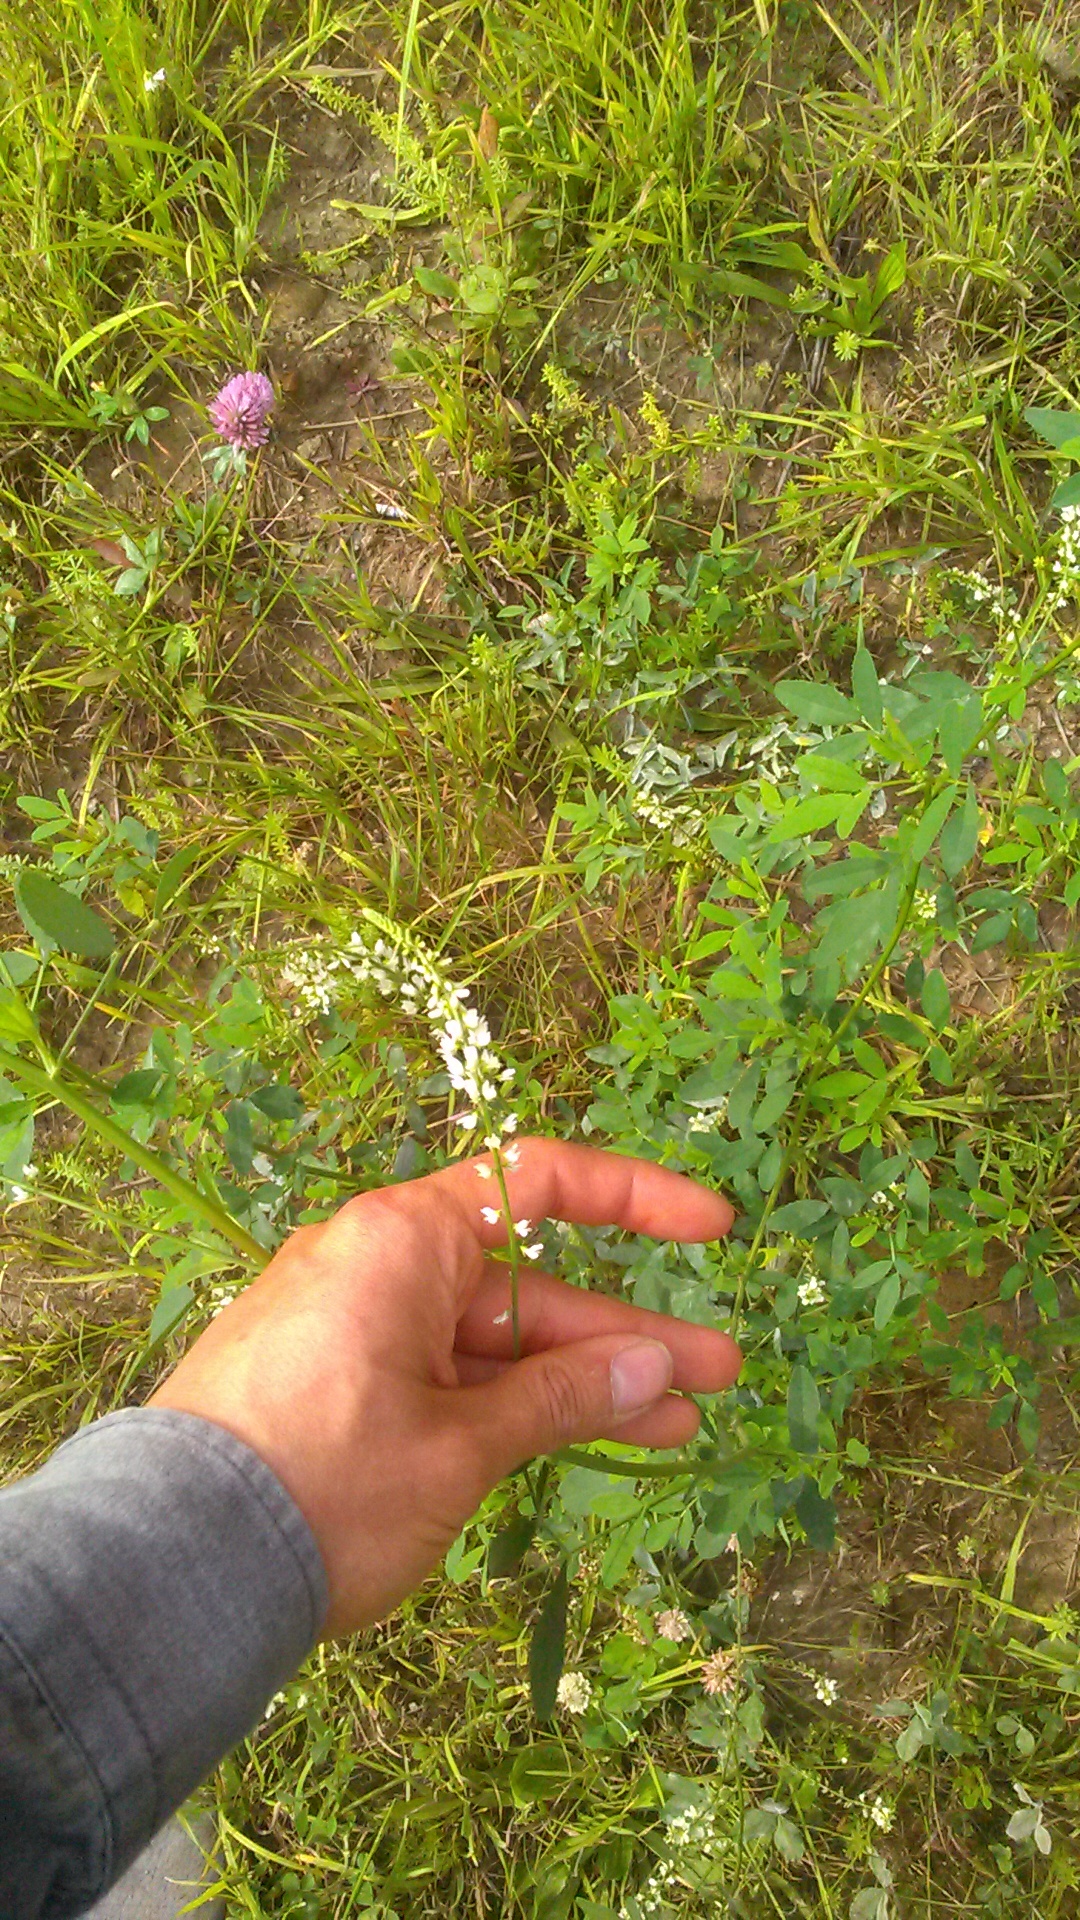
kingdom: Plantae
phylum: Tracheophyta
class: Magnoliopsida
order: Fabales
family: Fabaceae
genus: Melilotus
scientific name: Melilotus albus
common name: White melilot
